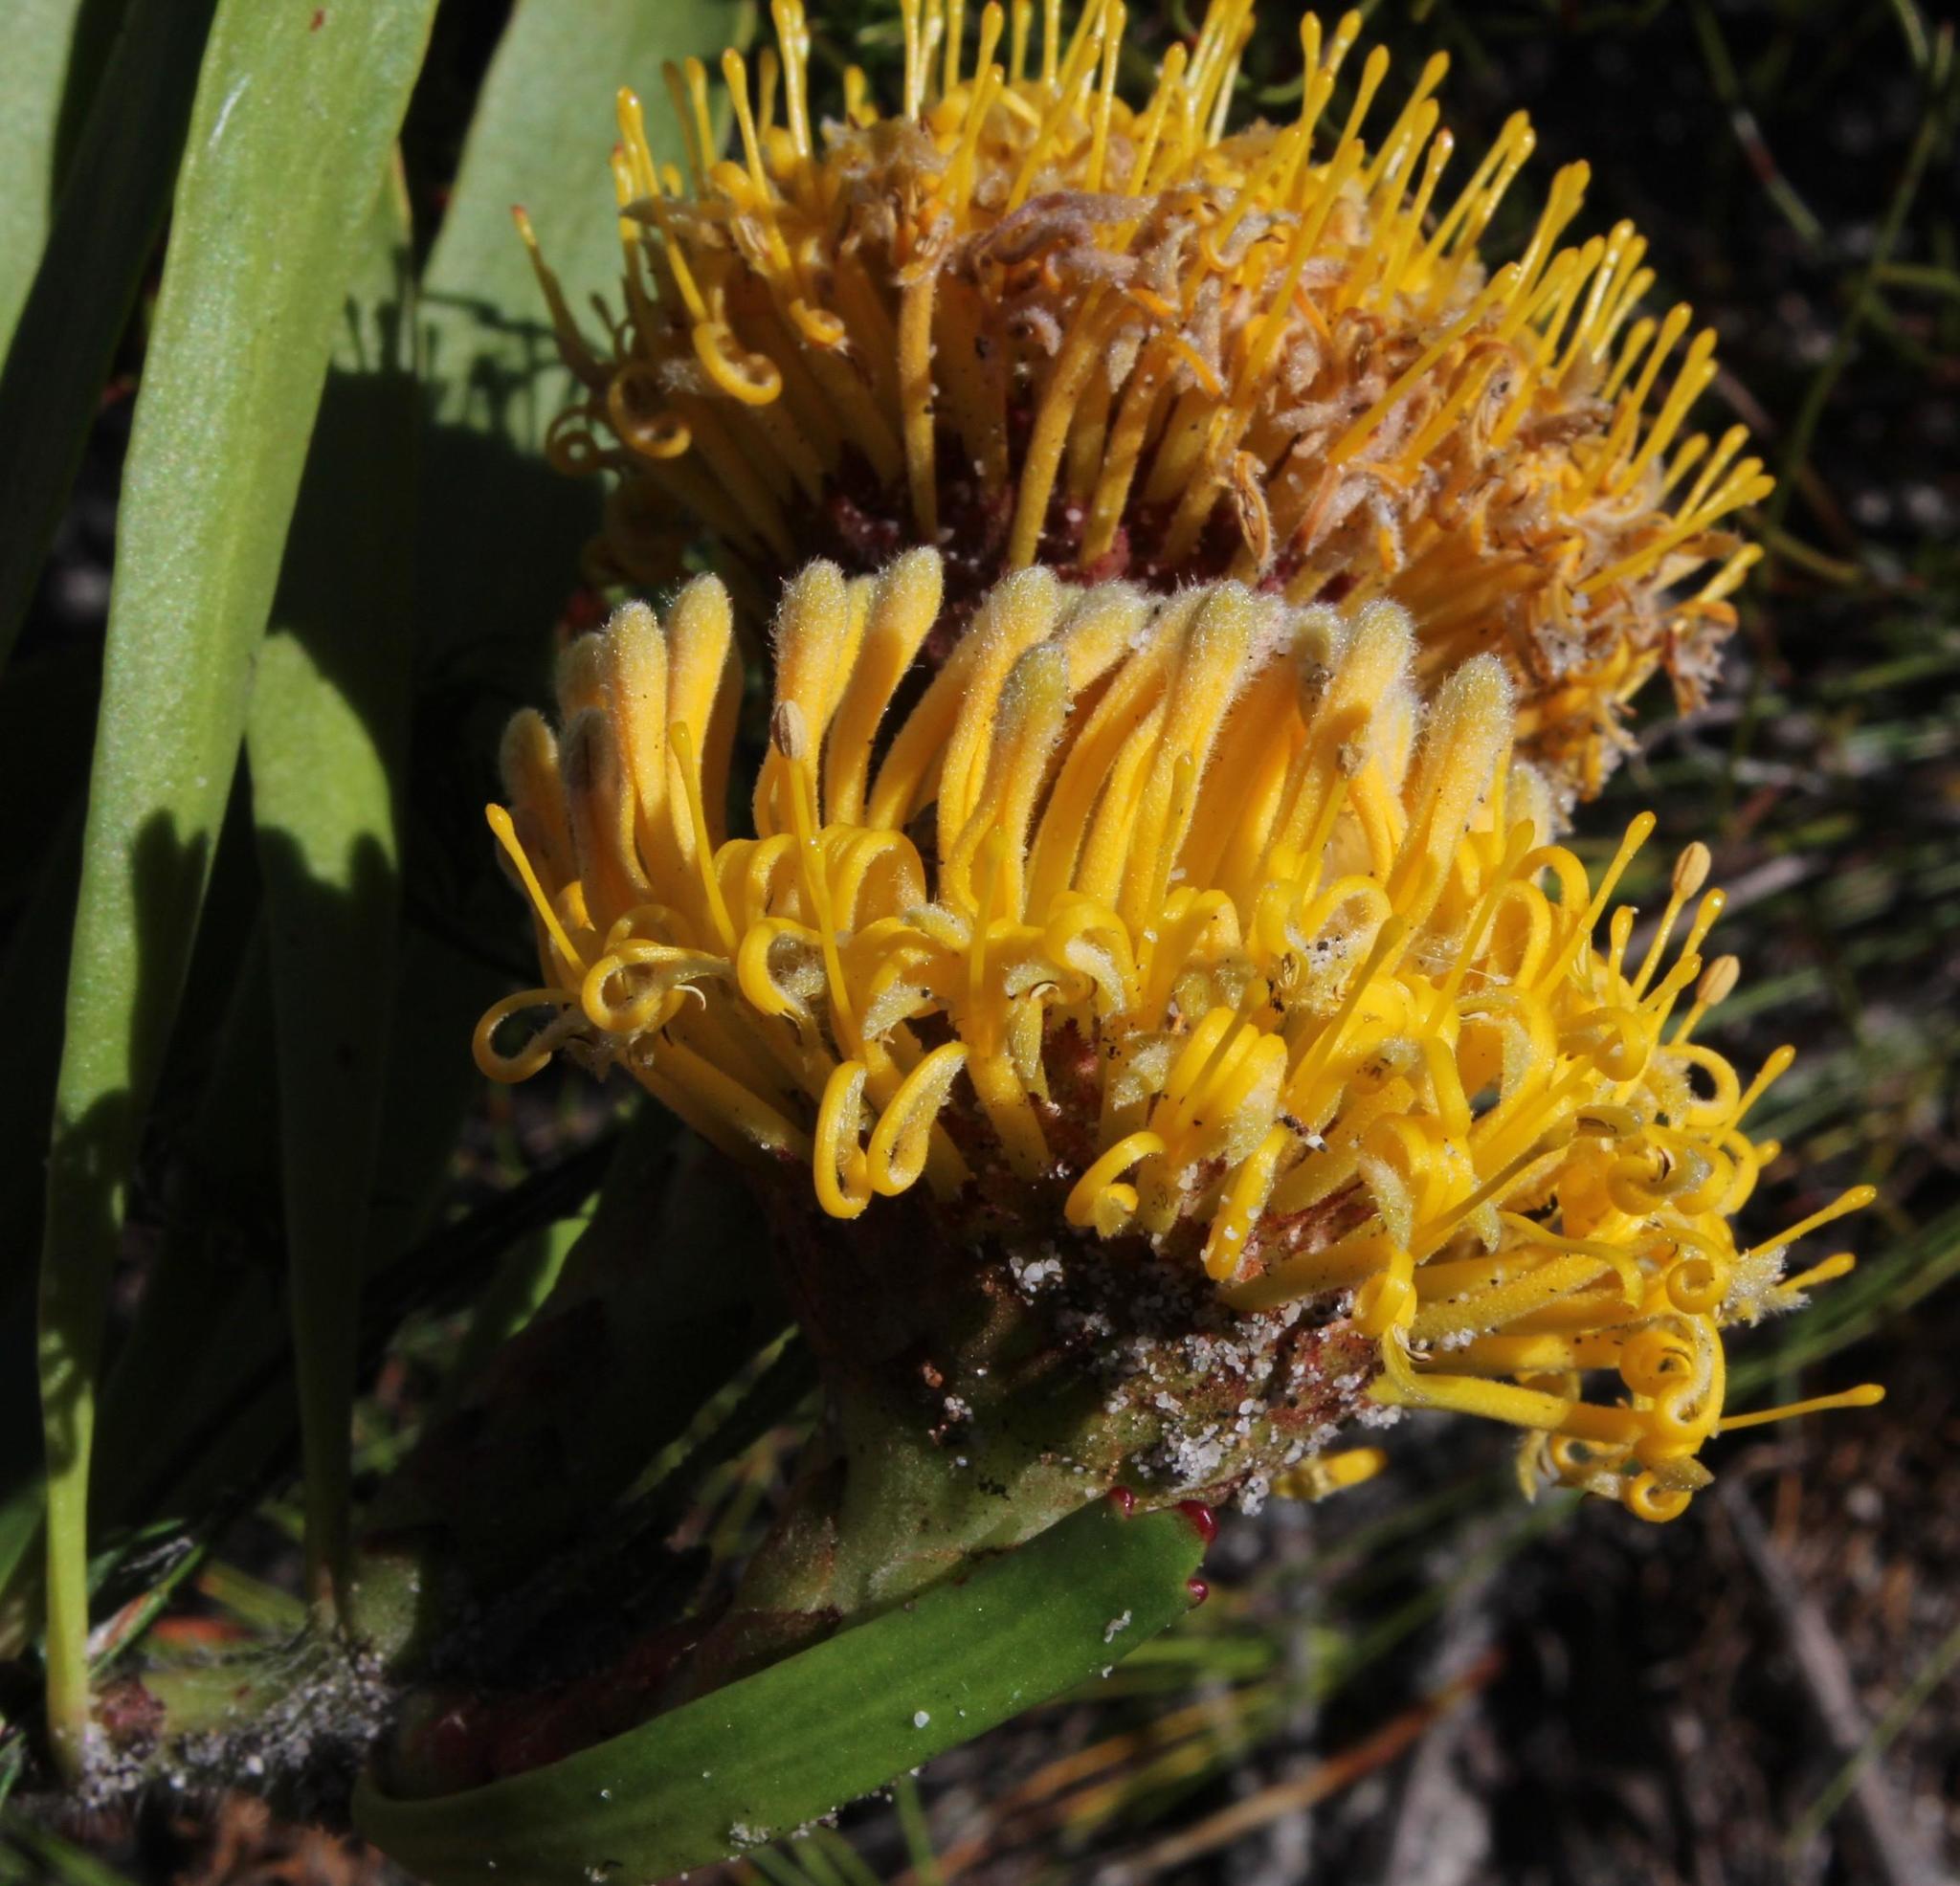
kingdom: Plantae
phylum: Tracheophyta
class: Magnoliopsida
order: Proteales
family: Proteaceae
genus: Leucospermum
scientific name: Leucospermum hypophyllocarpodendron
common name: Snakestem pincushion
